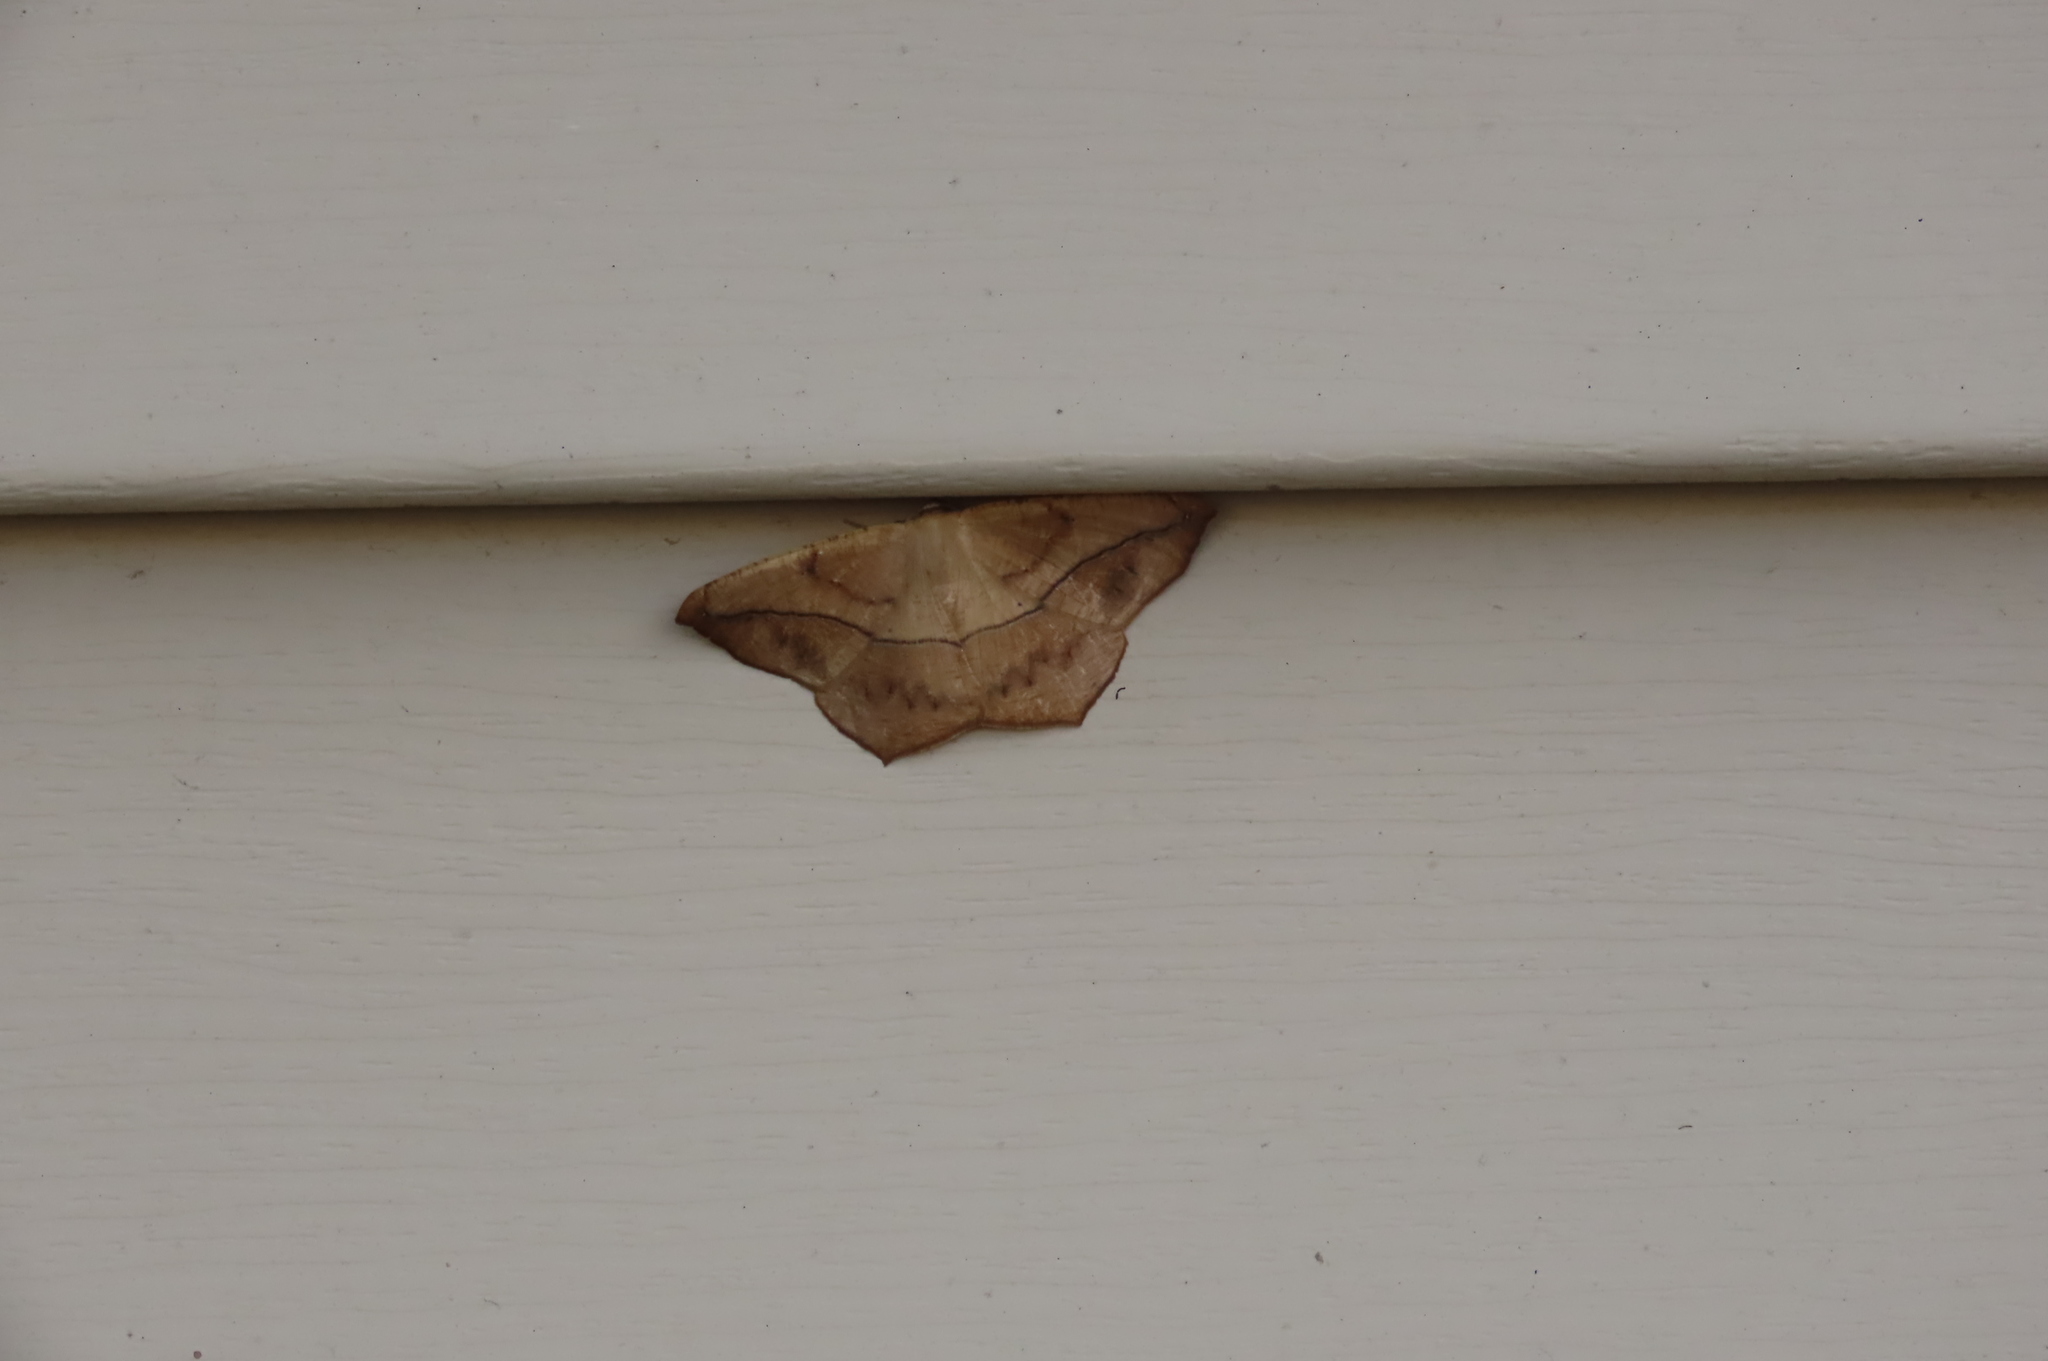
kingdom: Animalia
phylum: Arthropoda
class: Insecta
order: Lepidoptera
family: Geometridae
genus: Prochoerodes
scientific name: Prochoerodes lineola
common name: Large maple spanworm
